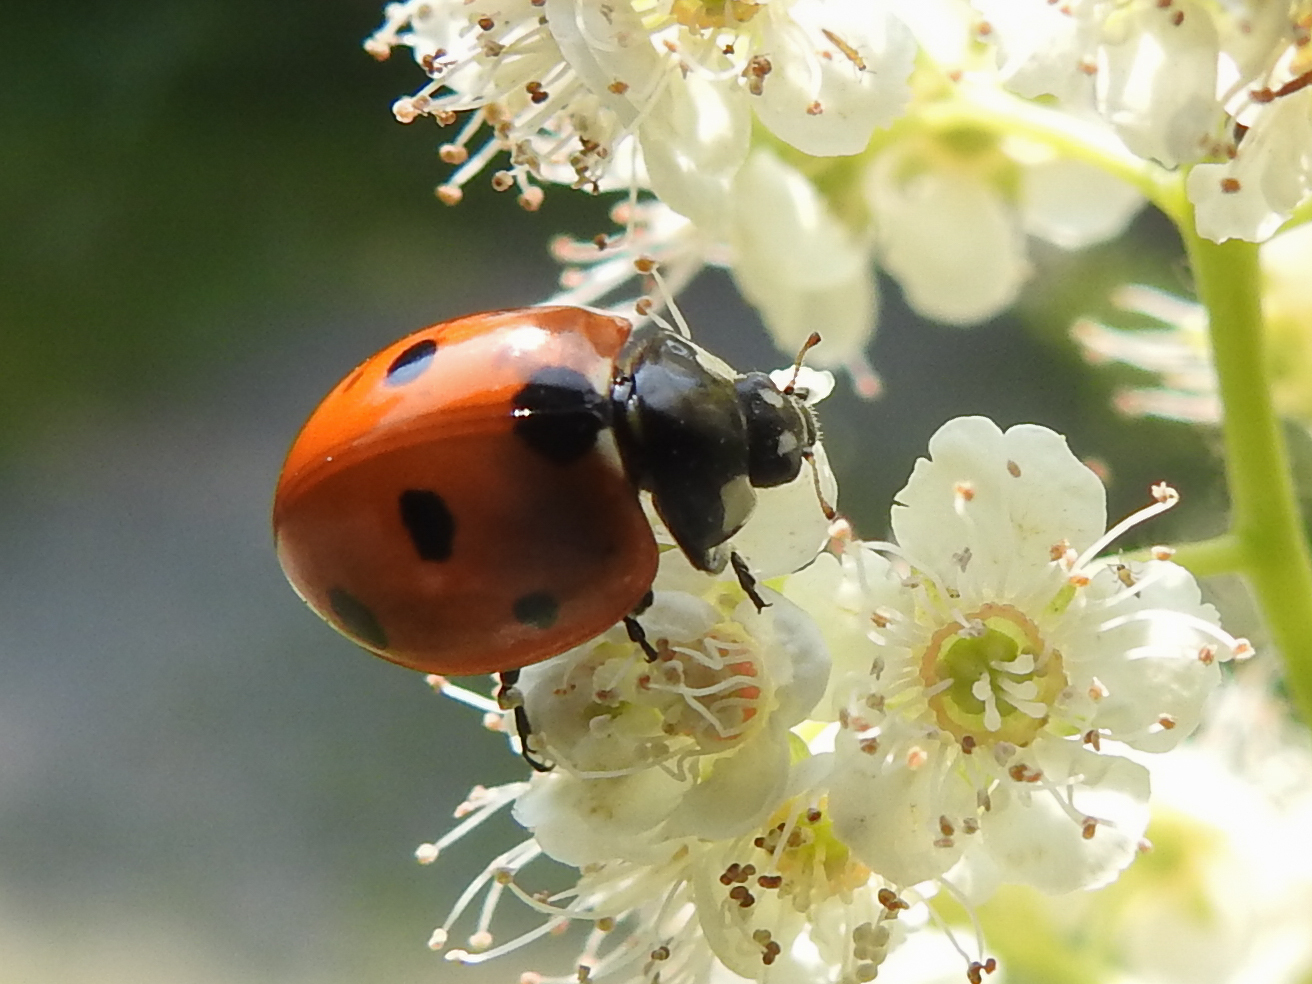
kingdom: Animalia
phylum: Arthropoda
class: Insecta
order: Coleoptera
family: Coccinellidae
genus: Coccinella
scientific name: Coccinella septempunctata
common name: Sevenspotted lady beetle
